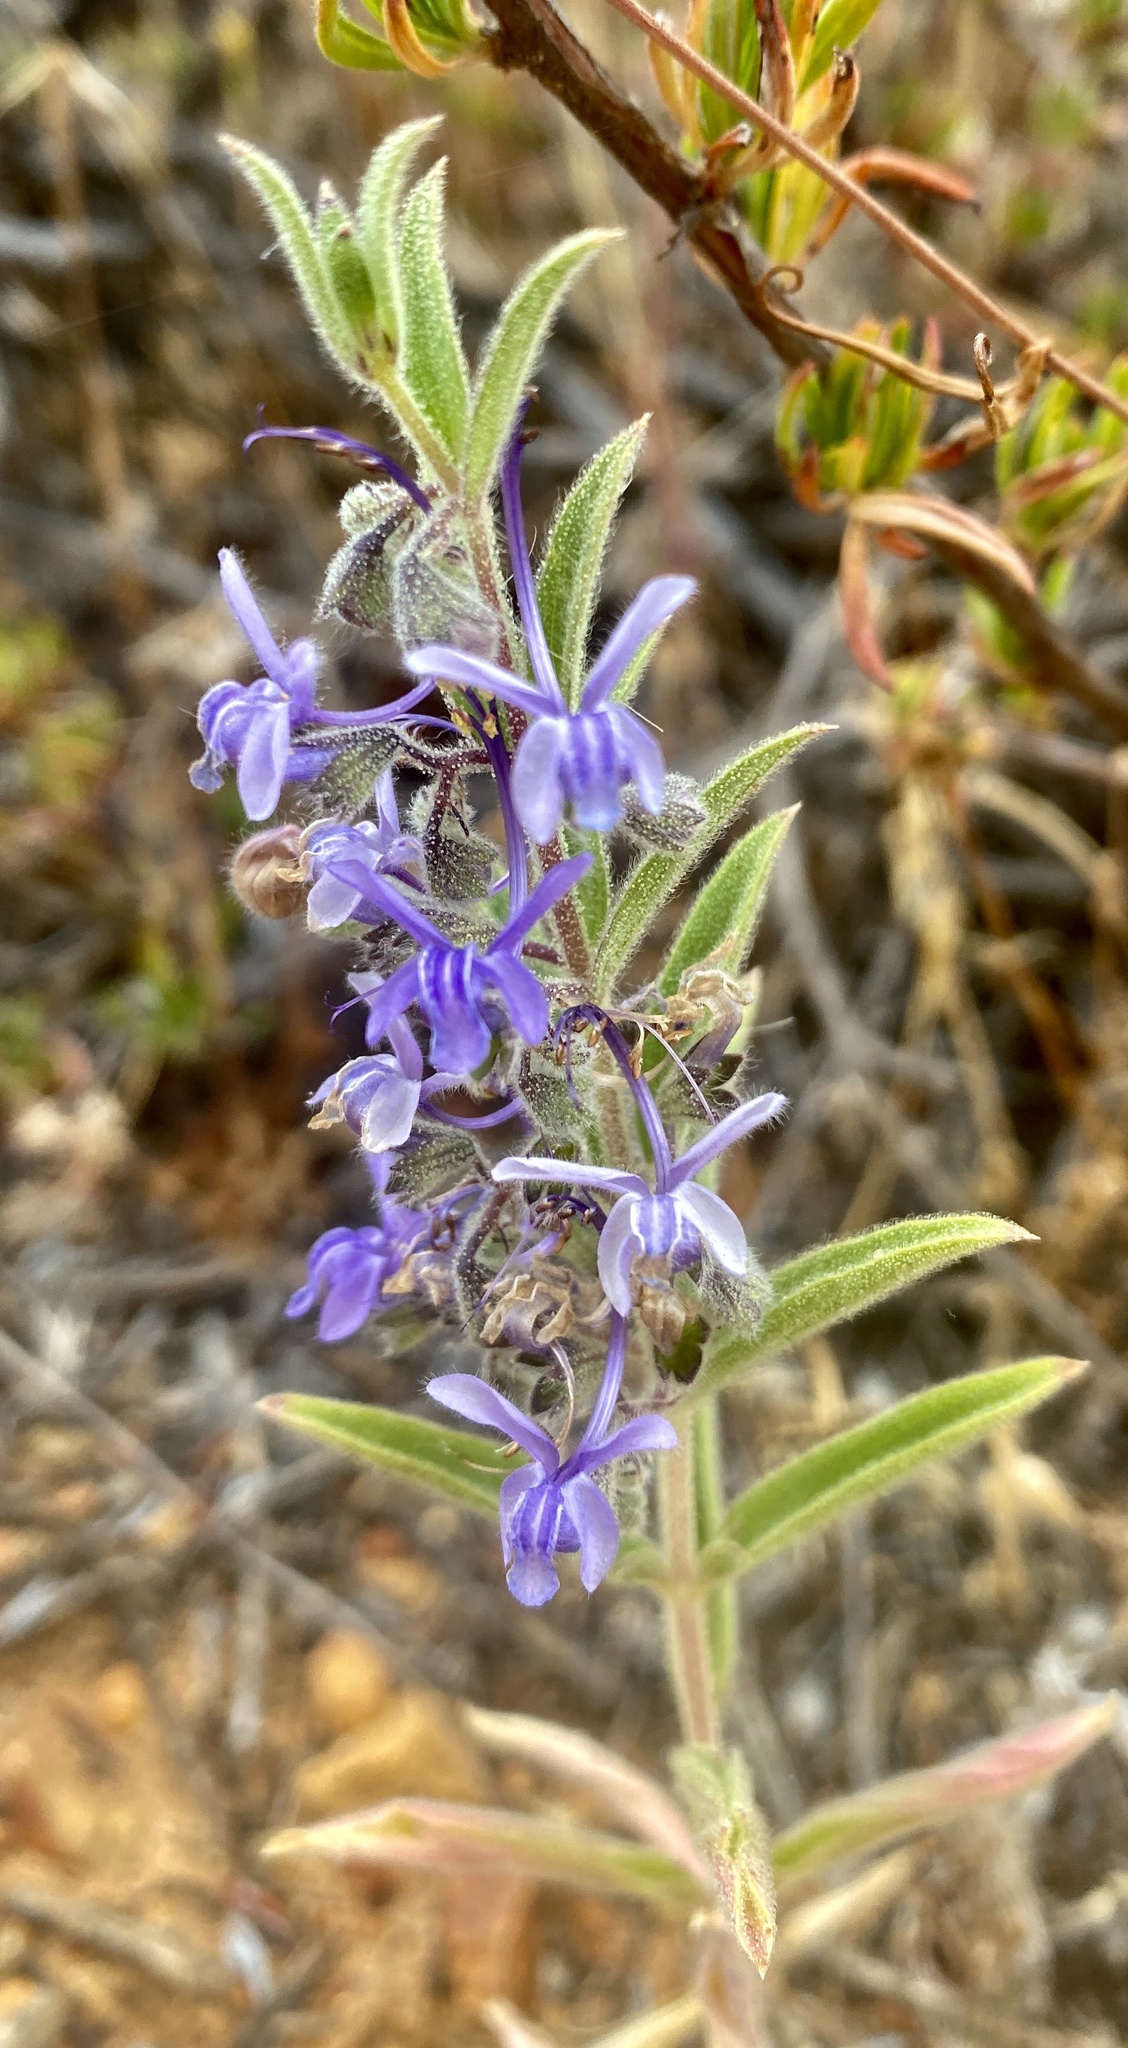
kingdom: Plantae
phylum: Tracheophyta
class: Magnoliopsida
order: Lamiales
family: Lamiaceae
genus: Trichostema
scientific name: Trichostema lanceolatum
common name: Vinegar-weed
